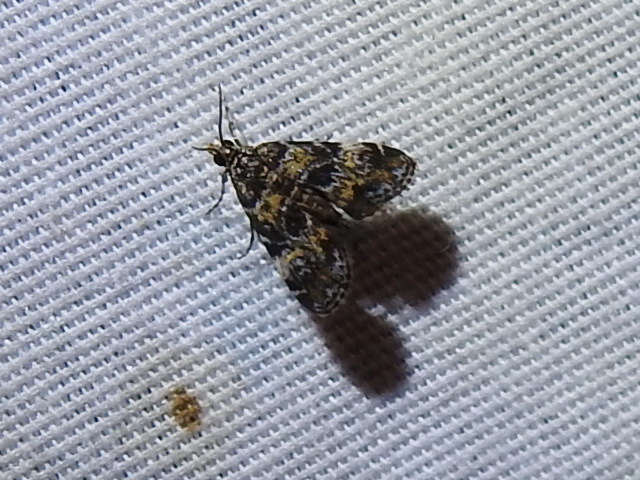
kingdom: Animalia
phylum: Arthropoda
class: Insecta
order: Lepidoptera
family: Crambidae
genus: Elophila
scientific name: Elophila obliteralis
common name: Waterlily leafcutter moth
